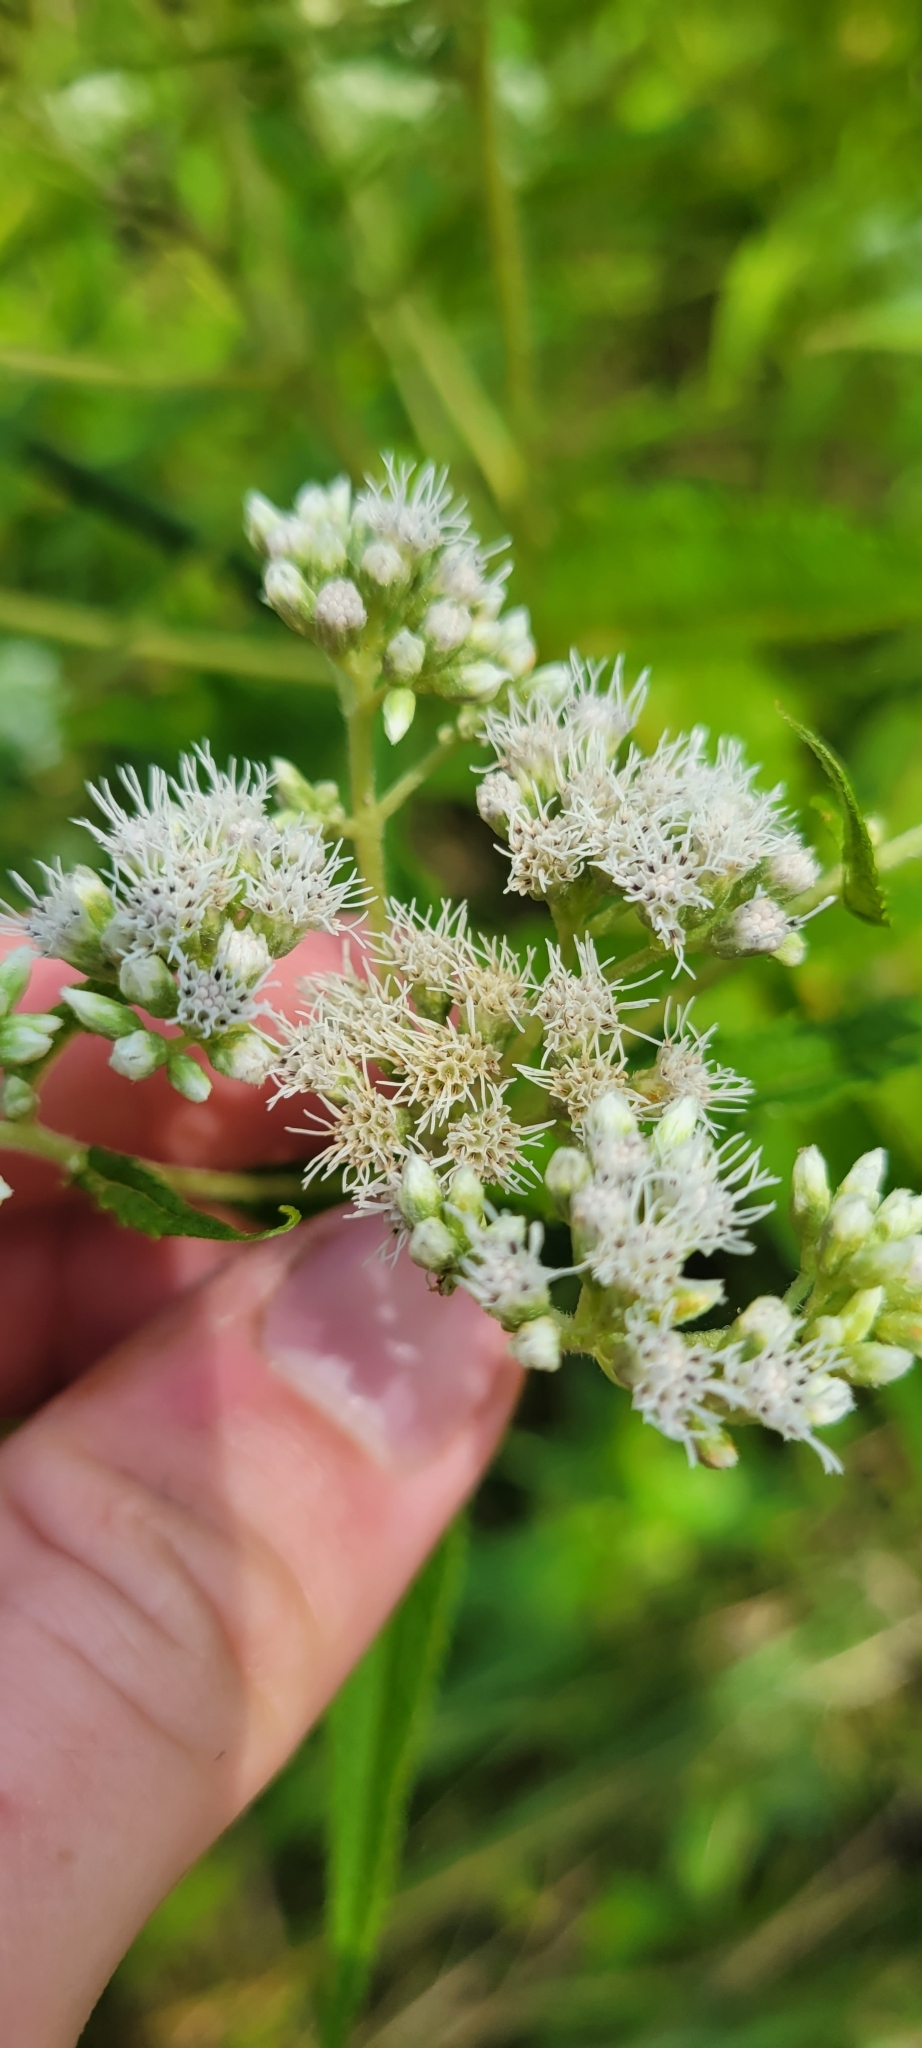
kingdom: Plantae
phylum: Tracheophyta
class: Magnoliopsida
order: Asterales
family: Asteraceae
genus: Eupatorium
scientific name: Eupatorium perfoliatum
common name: Boneset
